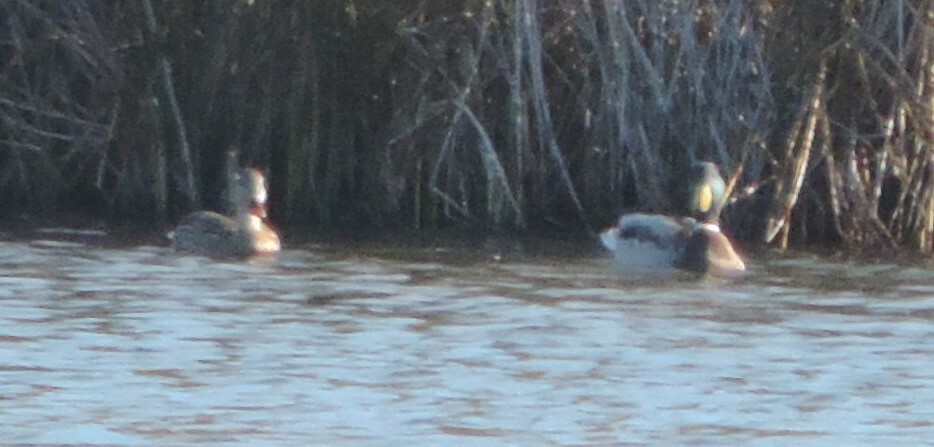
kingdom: Animalia
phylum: Chordata
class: Aves
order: Anseriformes
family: Anatidae
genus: Anas
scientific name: Anas platyrhynchos
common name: Mallard
